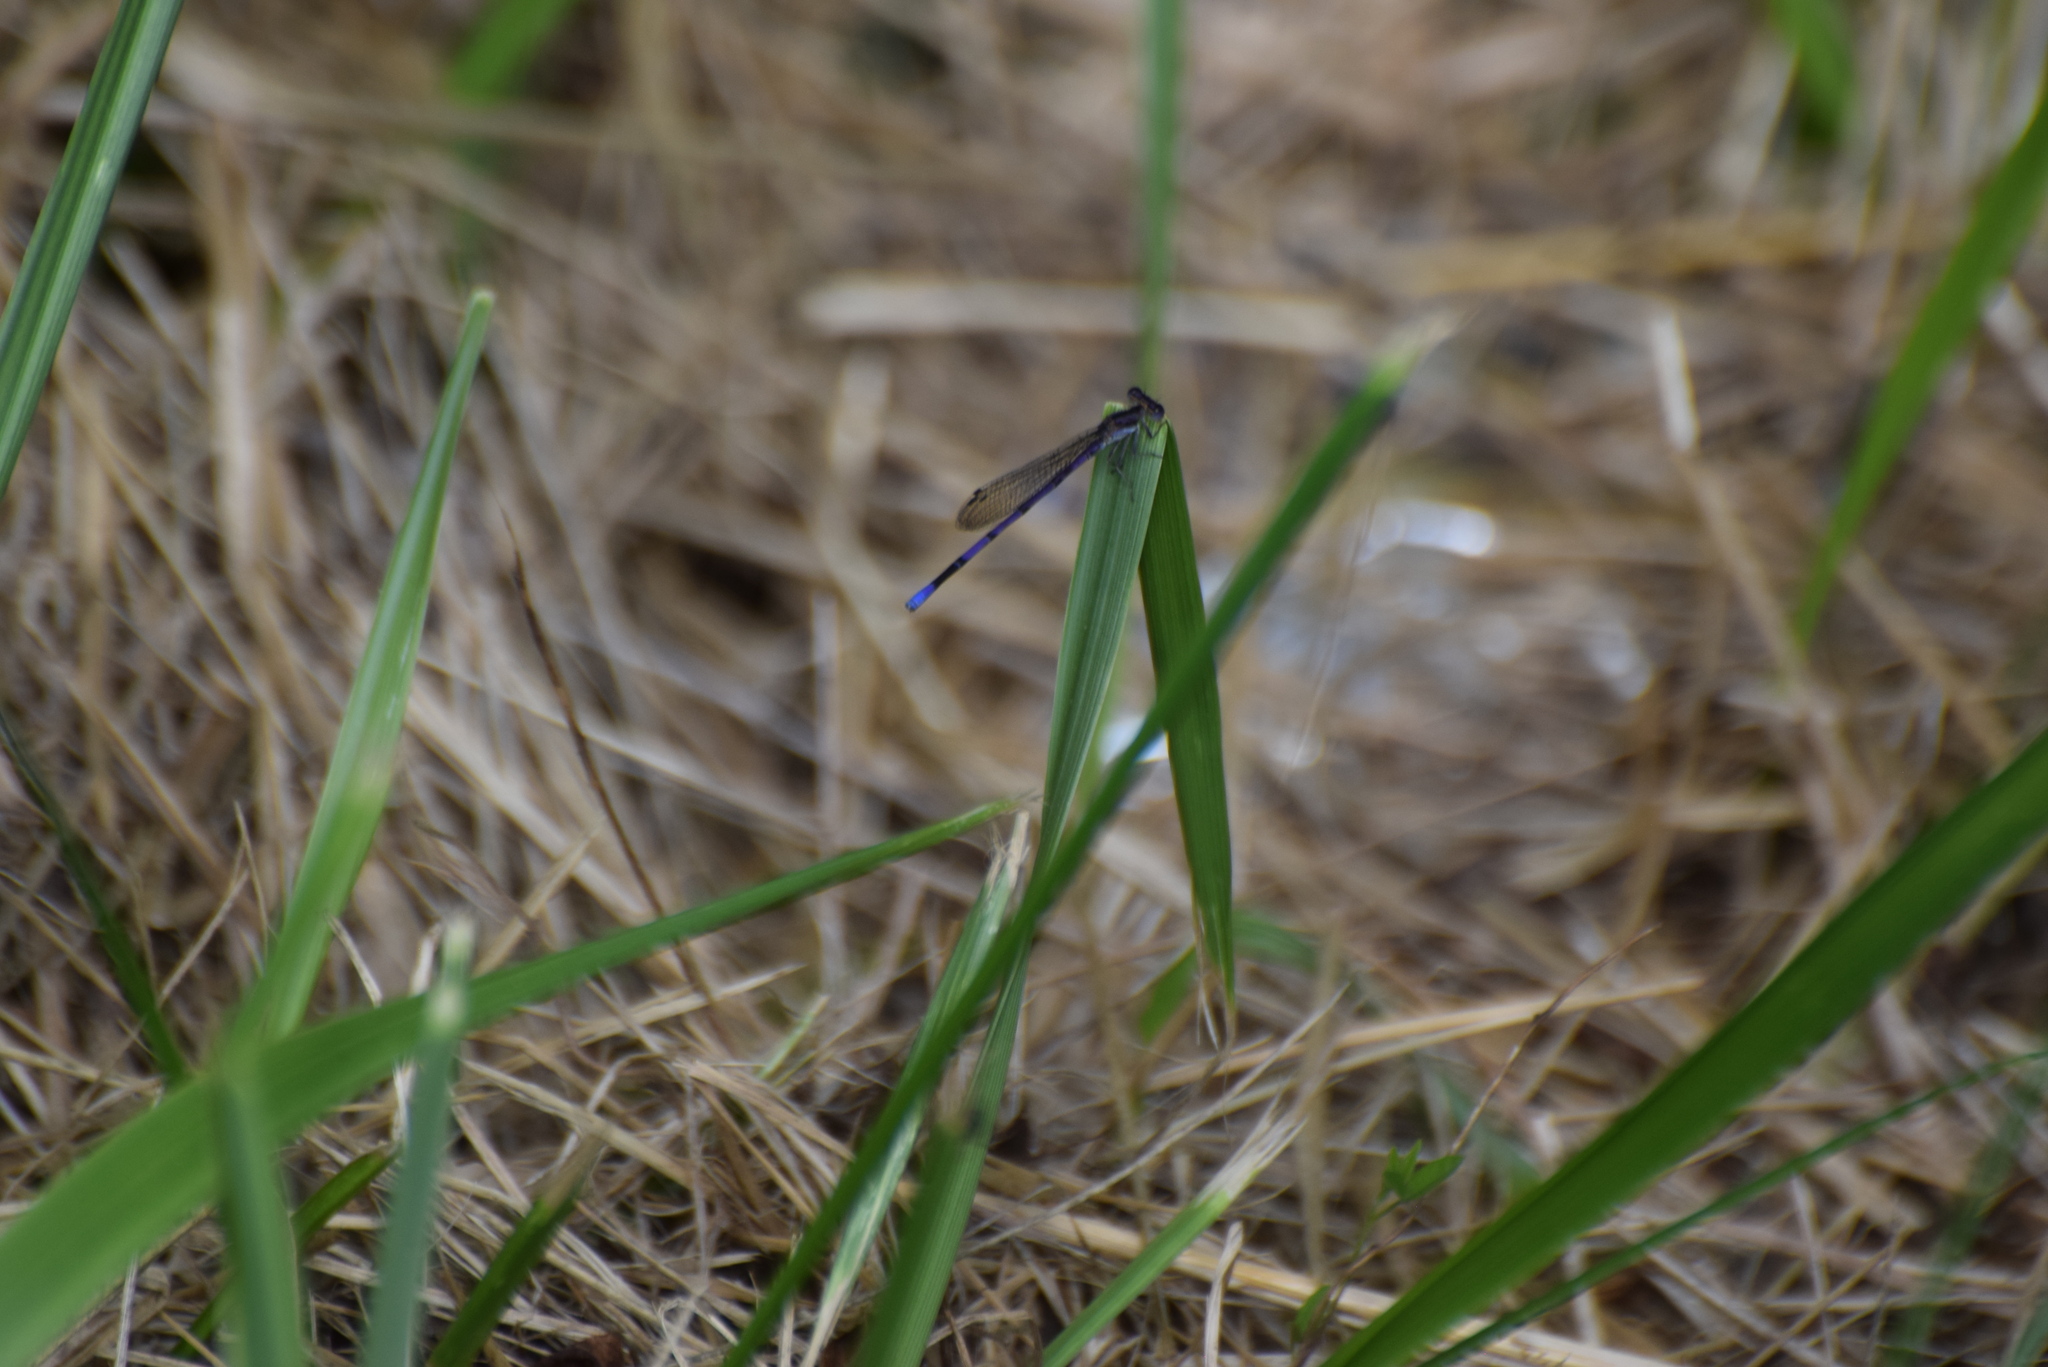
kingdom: Animalia
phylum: Arthropoda
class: Insecta
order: Odonata
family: Coenagrionidae
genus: Argia
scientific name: Argia fumipennis
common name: Variable dancer
